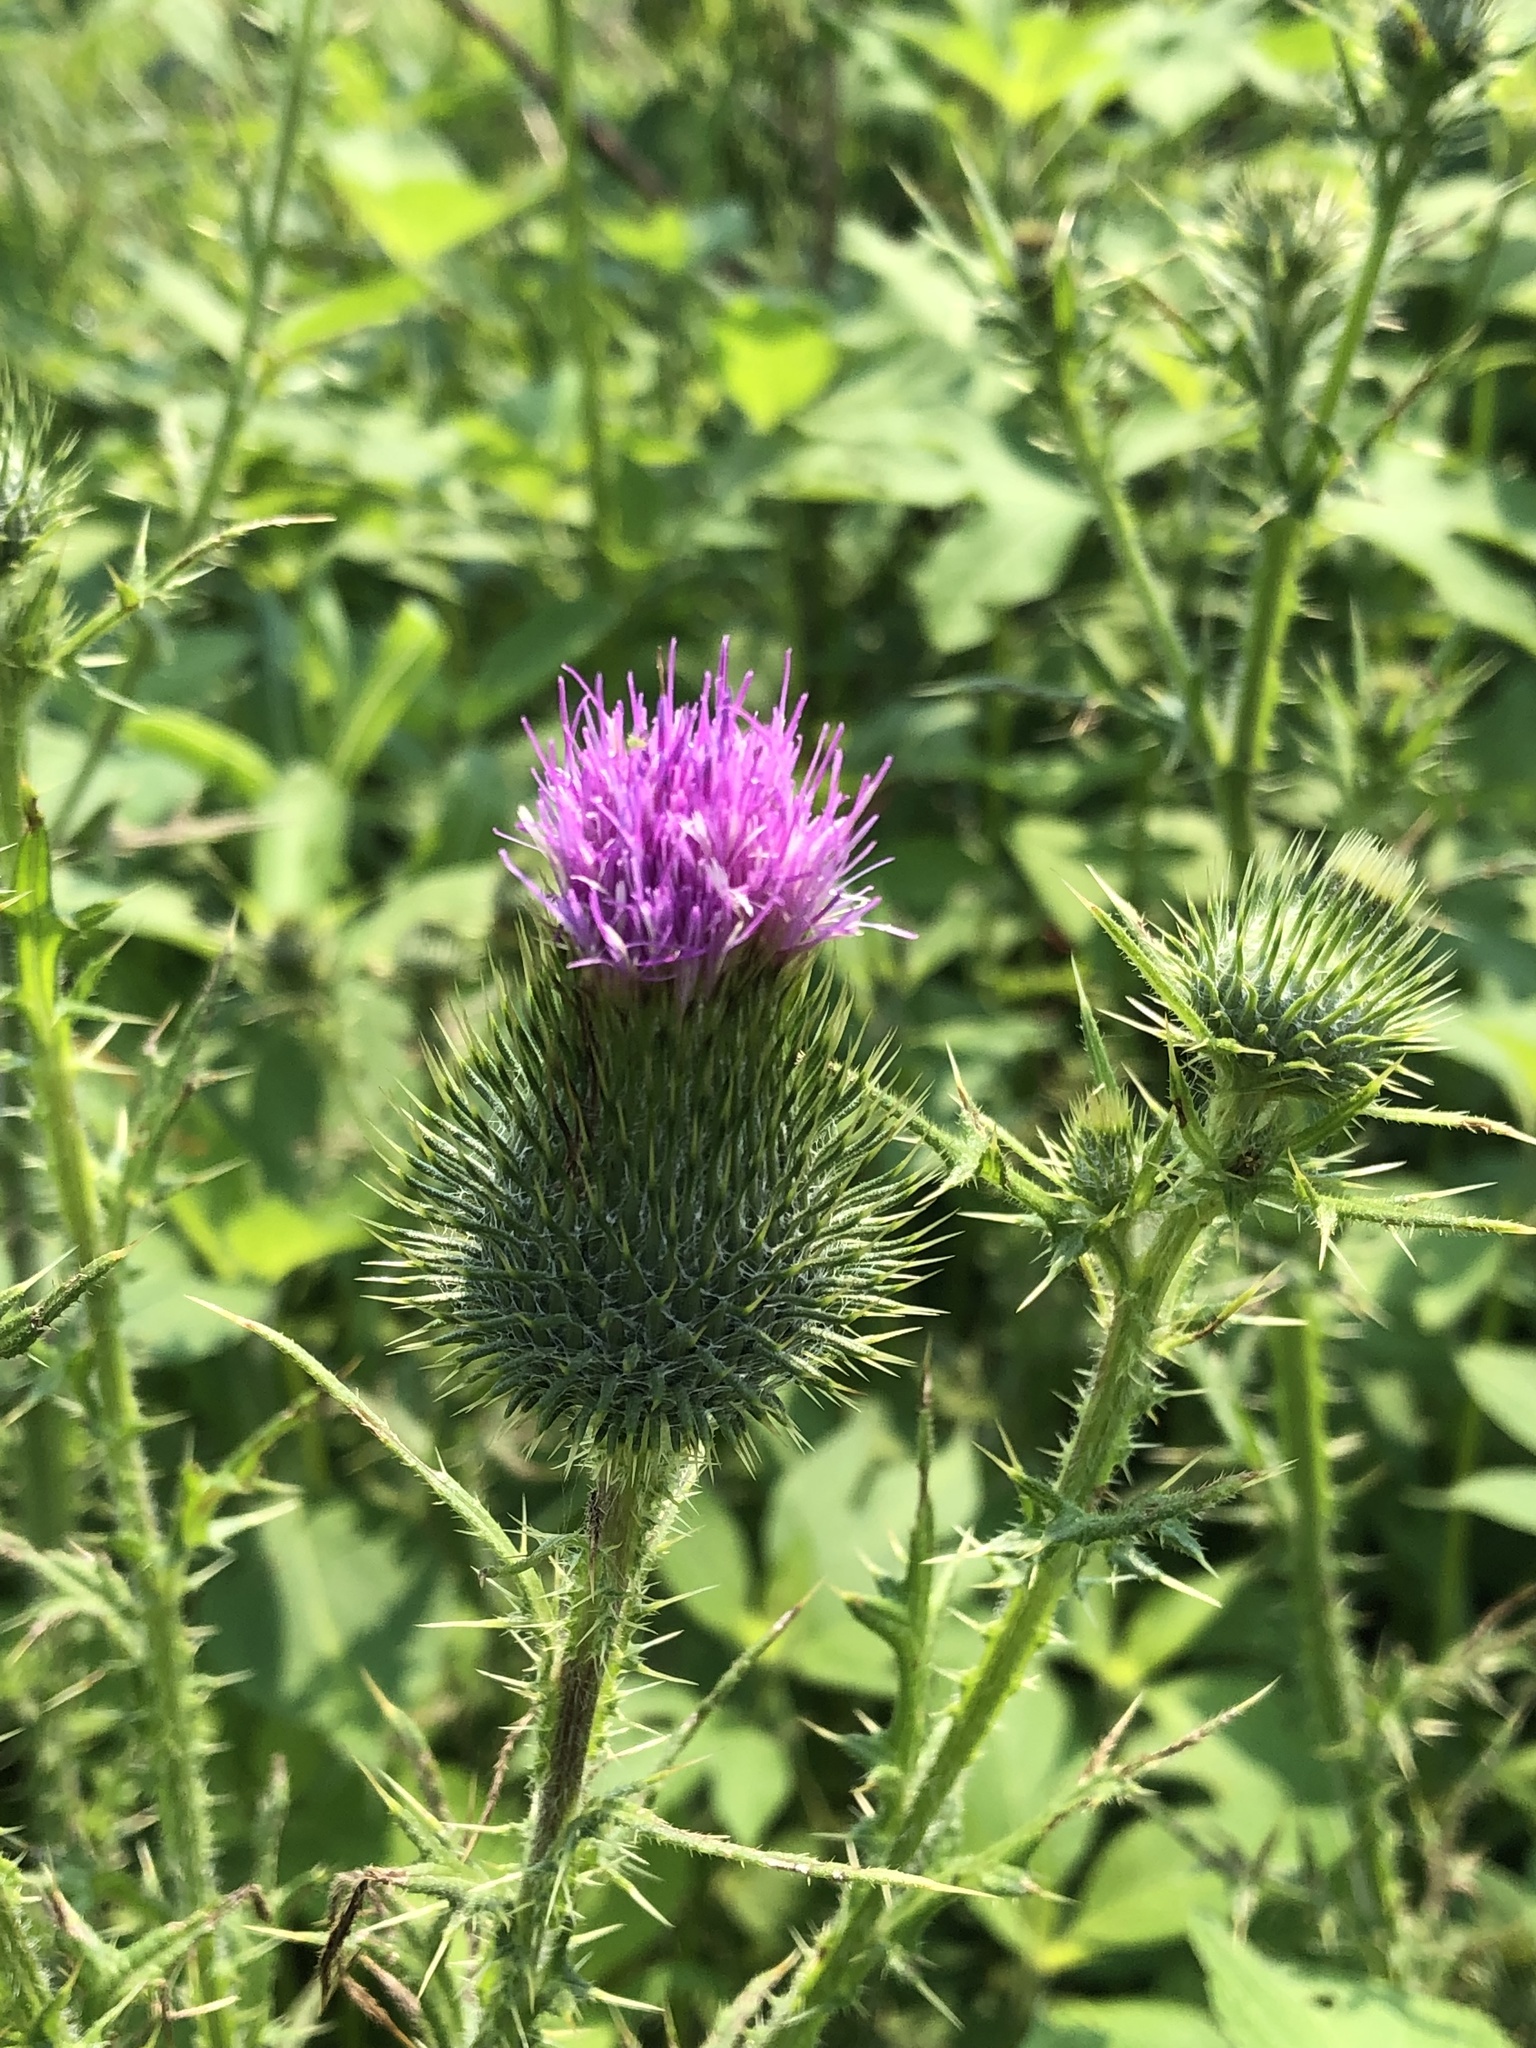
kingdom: Plantae
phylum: Tracheophyta
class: Magnoliopsida
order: Asterales
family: Asteraceae
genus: Cirsium
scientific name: Cirsium vulgare
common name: Bull thistle
